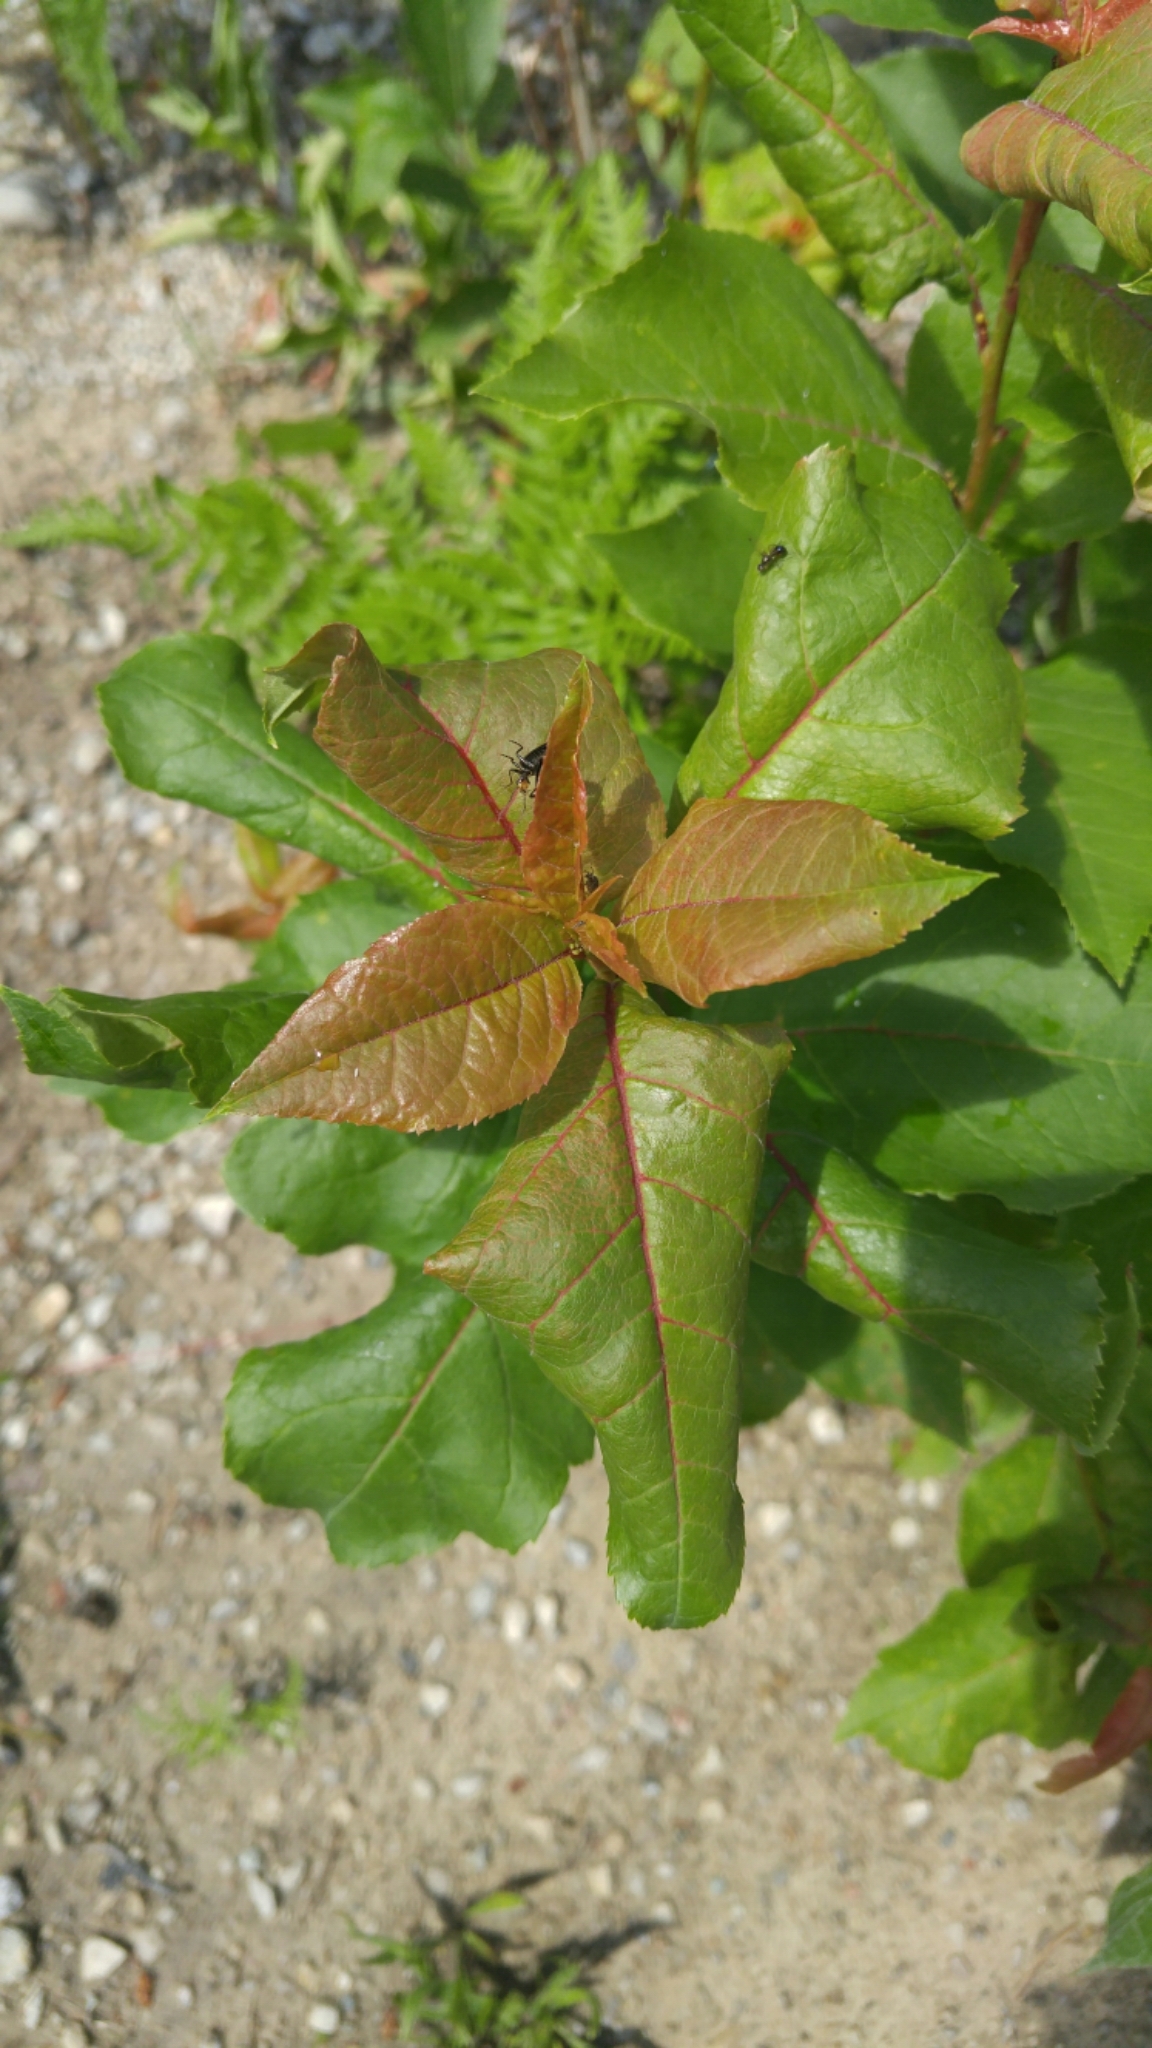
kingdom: Plantae
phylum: Tracheophyta
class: Magnoliopsida
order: Rosales
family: Rosaceae
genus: Prunus
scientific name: Prunus virginiana
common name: Chokecherry
